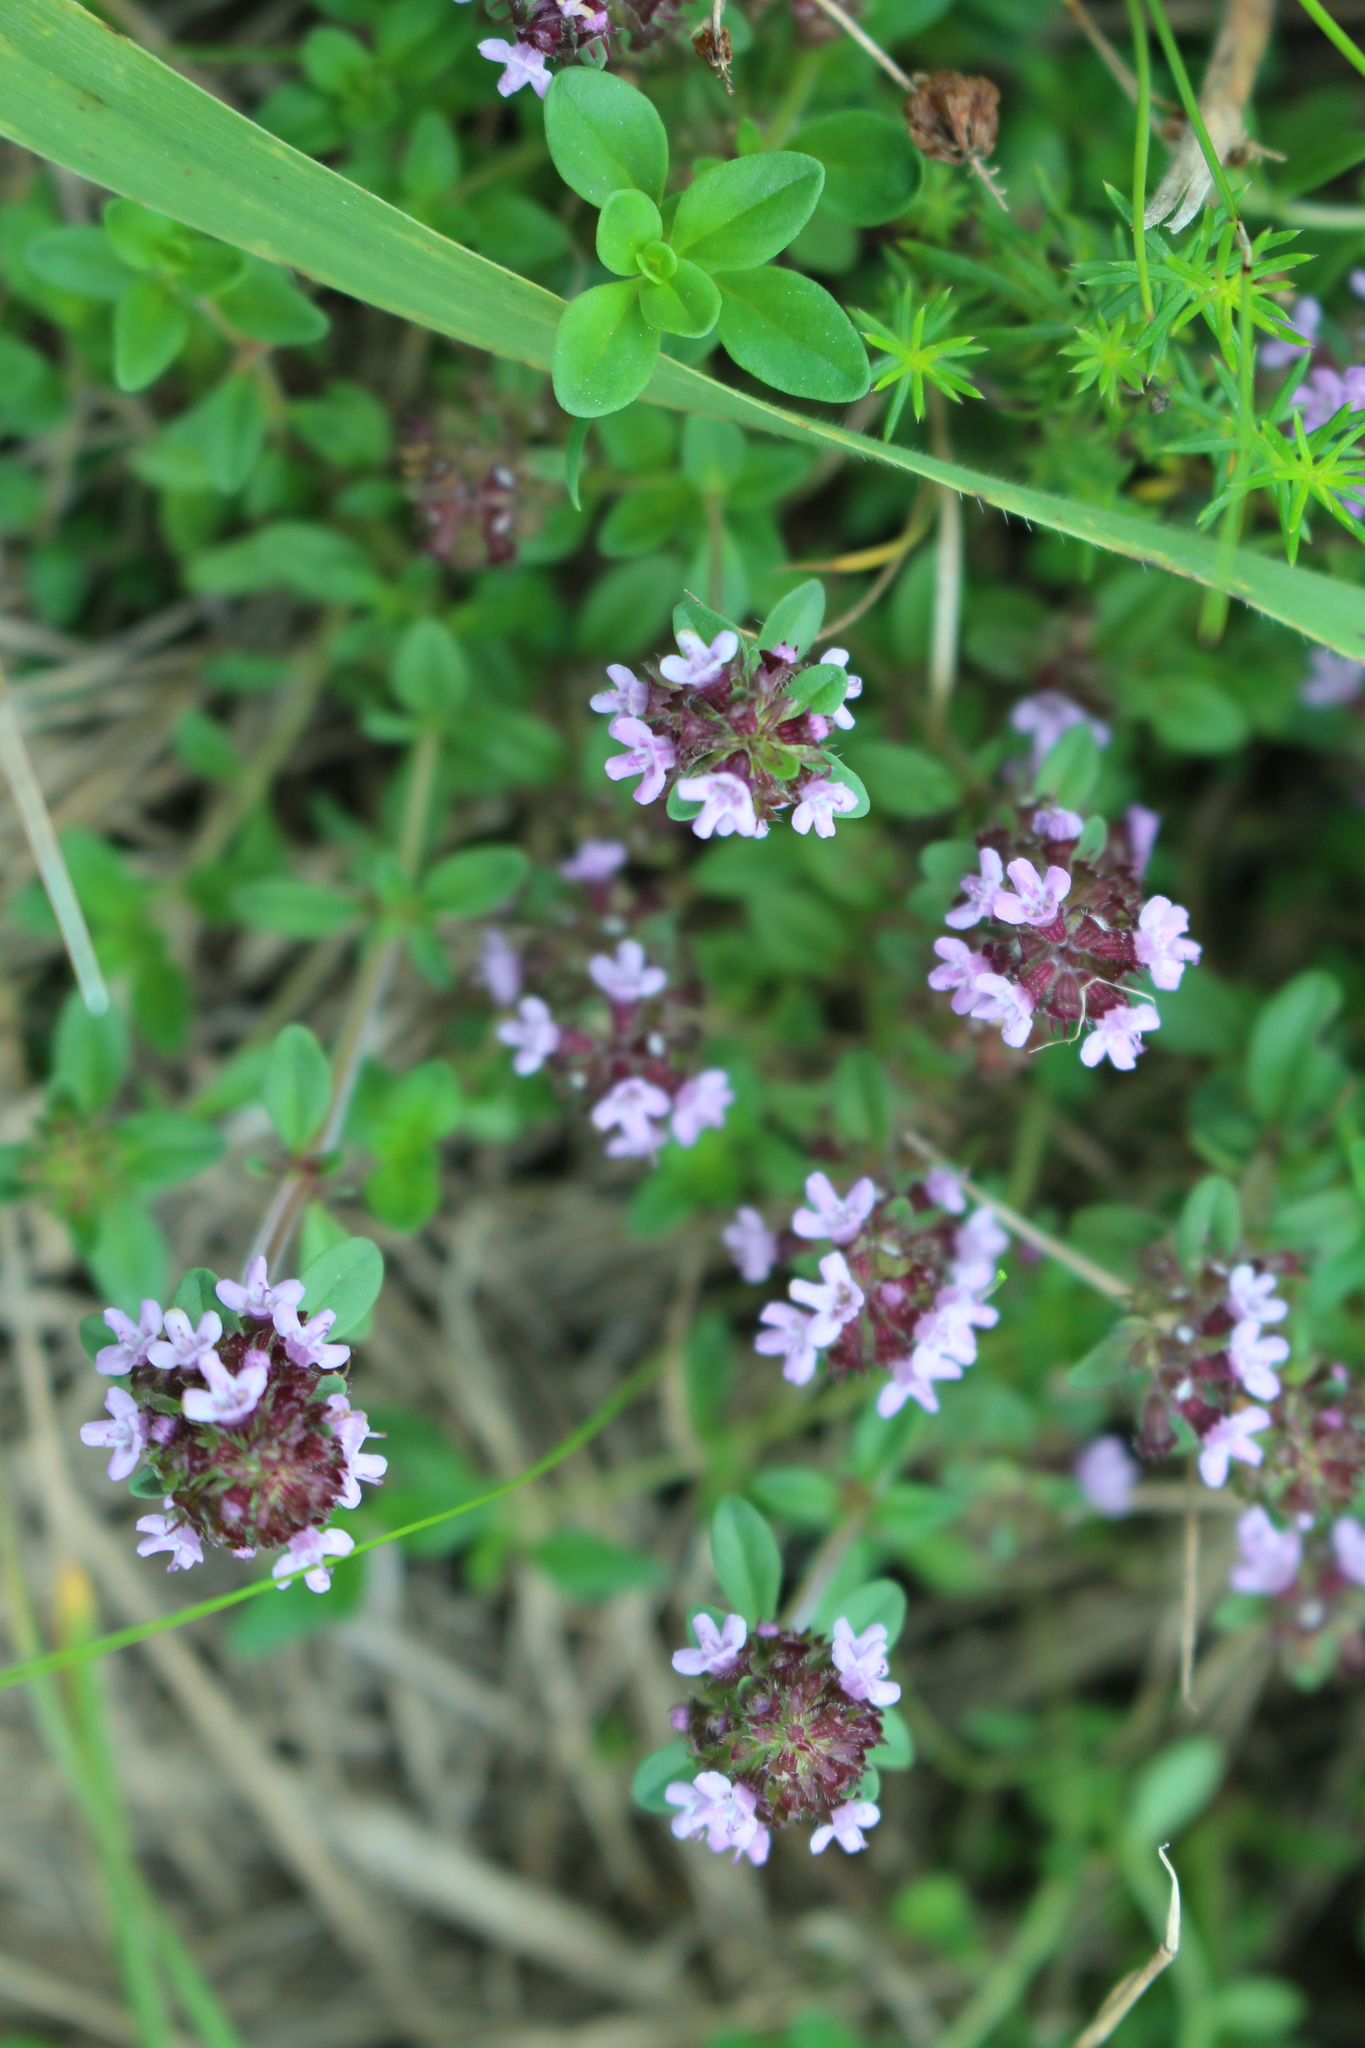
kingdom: Plantae
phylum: Tracheophyta
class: Magnoliopsida
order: Lamiales
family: Lamiaceae
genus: Thymus
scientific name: Thymus praecox
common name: Wild thyme
